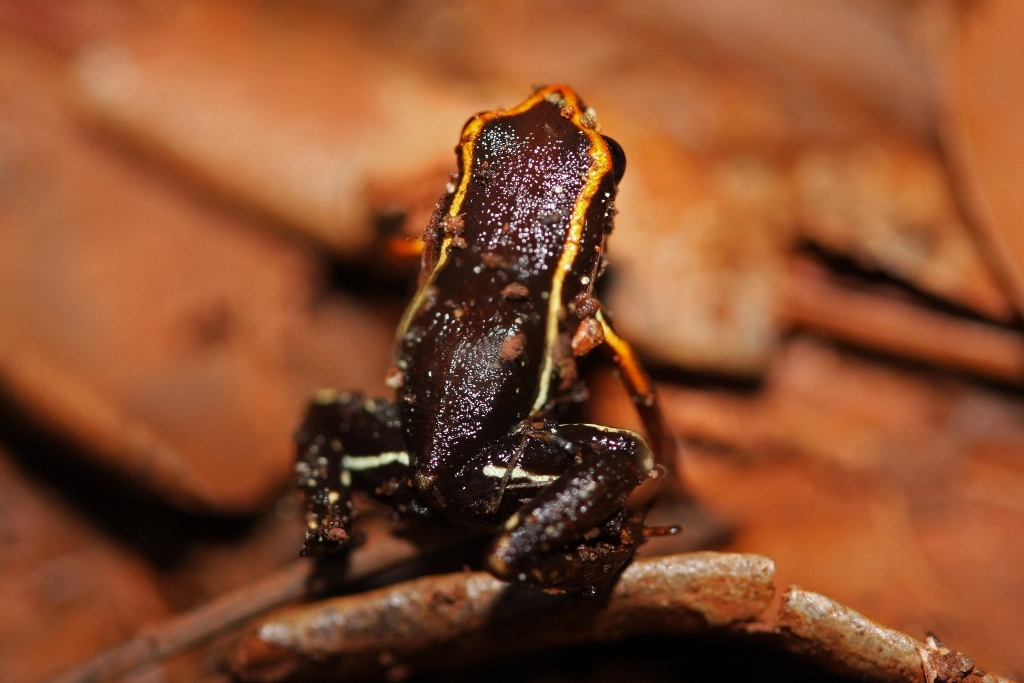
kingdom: Animalia
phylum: Chordata
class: Amphibia
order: Anura
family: Eleutherodactylidae
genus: Eleutherodactylus
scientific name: Eleutherodactylus iberia
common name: Monte iberia dwarf frog
